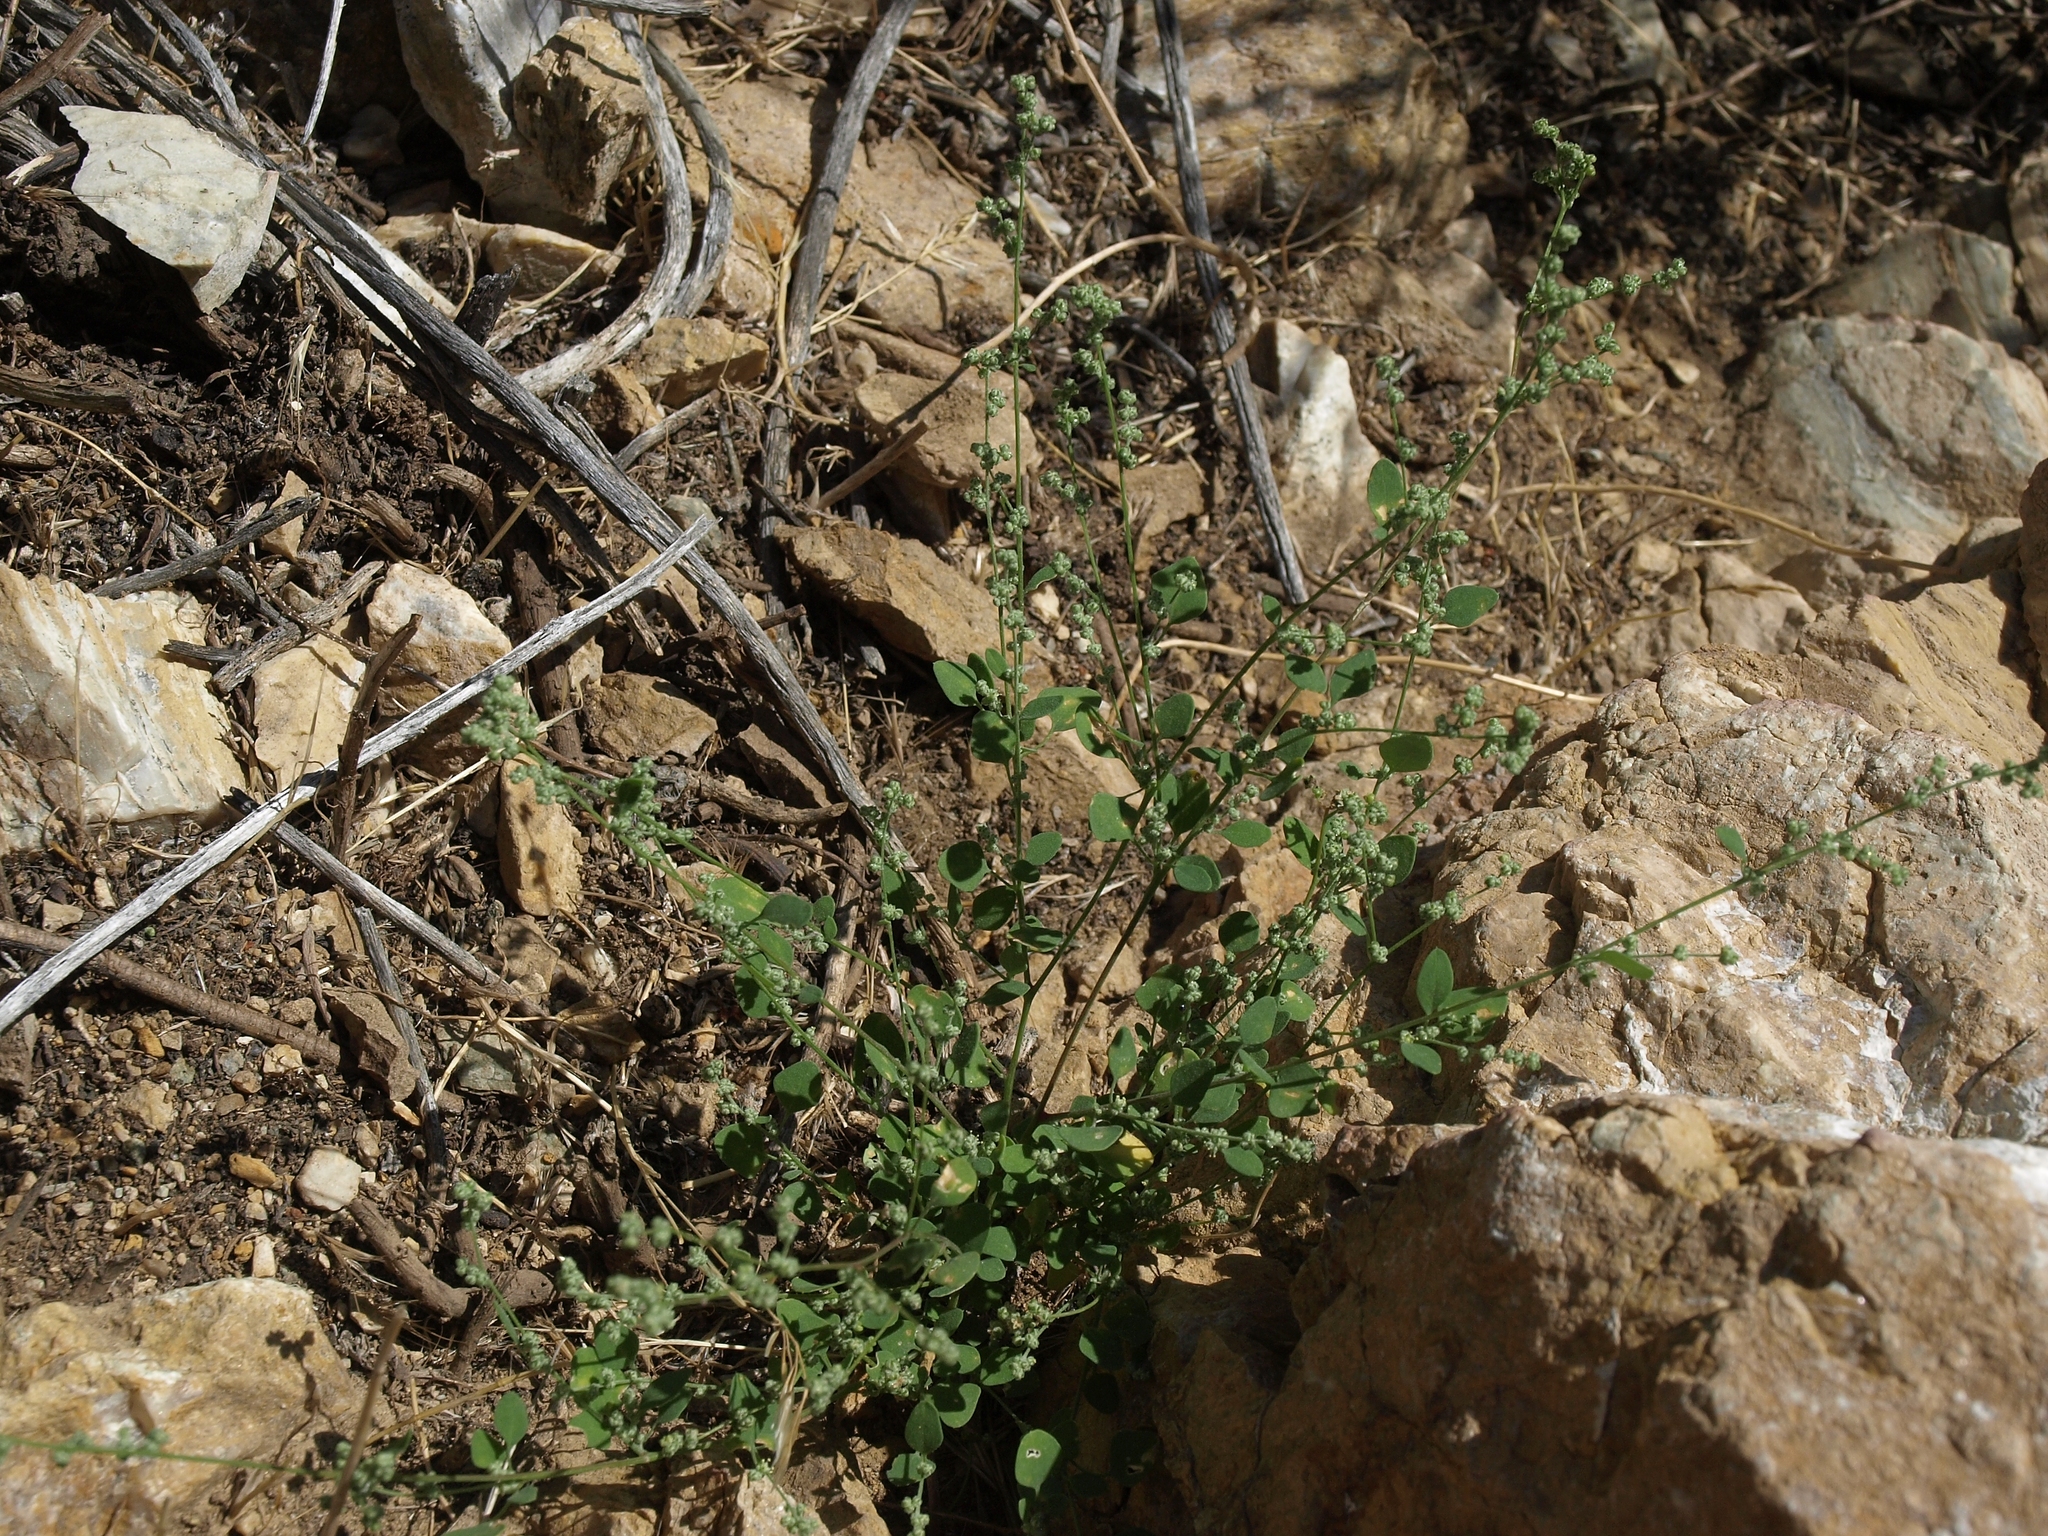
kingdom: Plantae
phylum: Tracheophyta
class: Magnoliopsida
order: Caryophyllales
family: Amaranthaceae
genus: Chenopodium
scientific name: Chenopodium atrovirens
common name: Dark goosefoot
